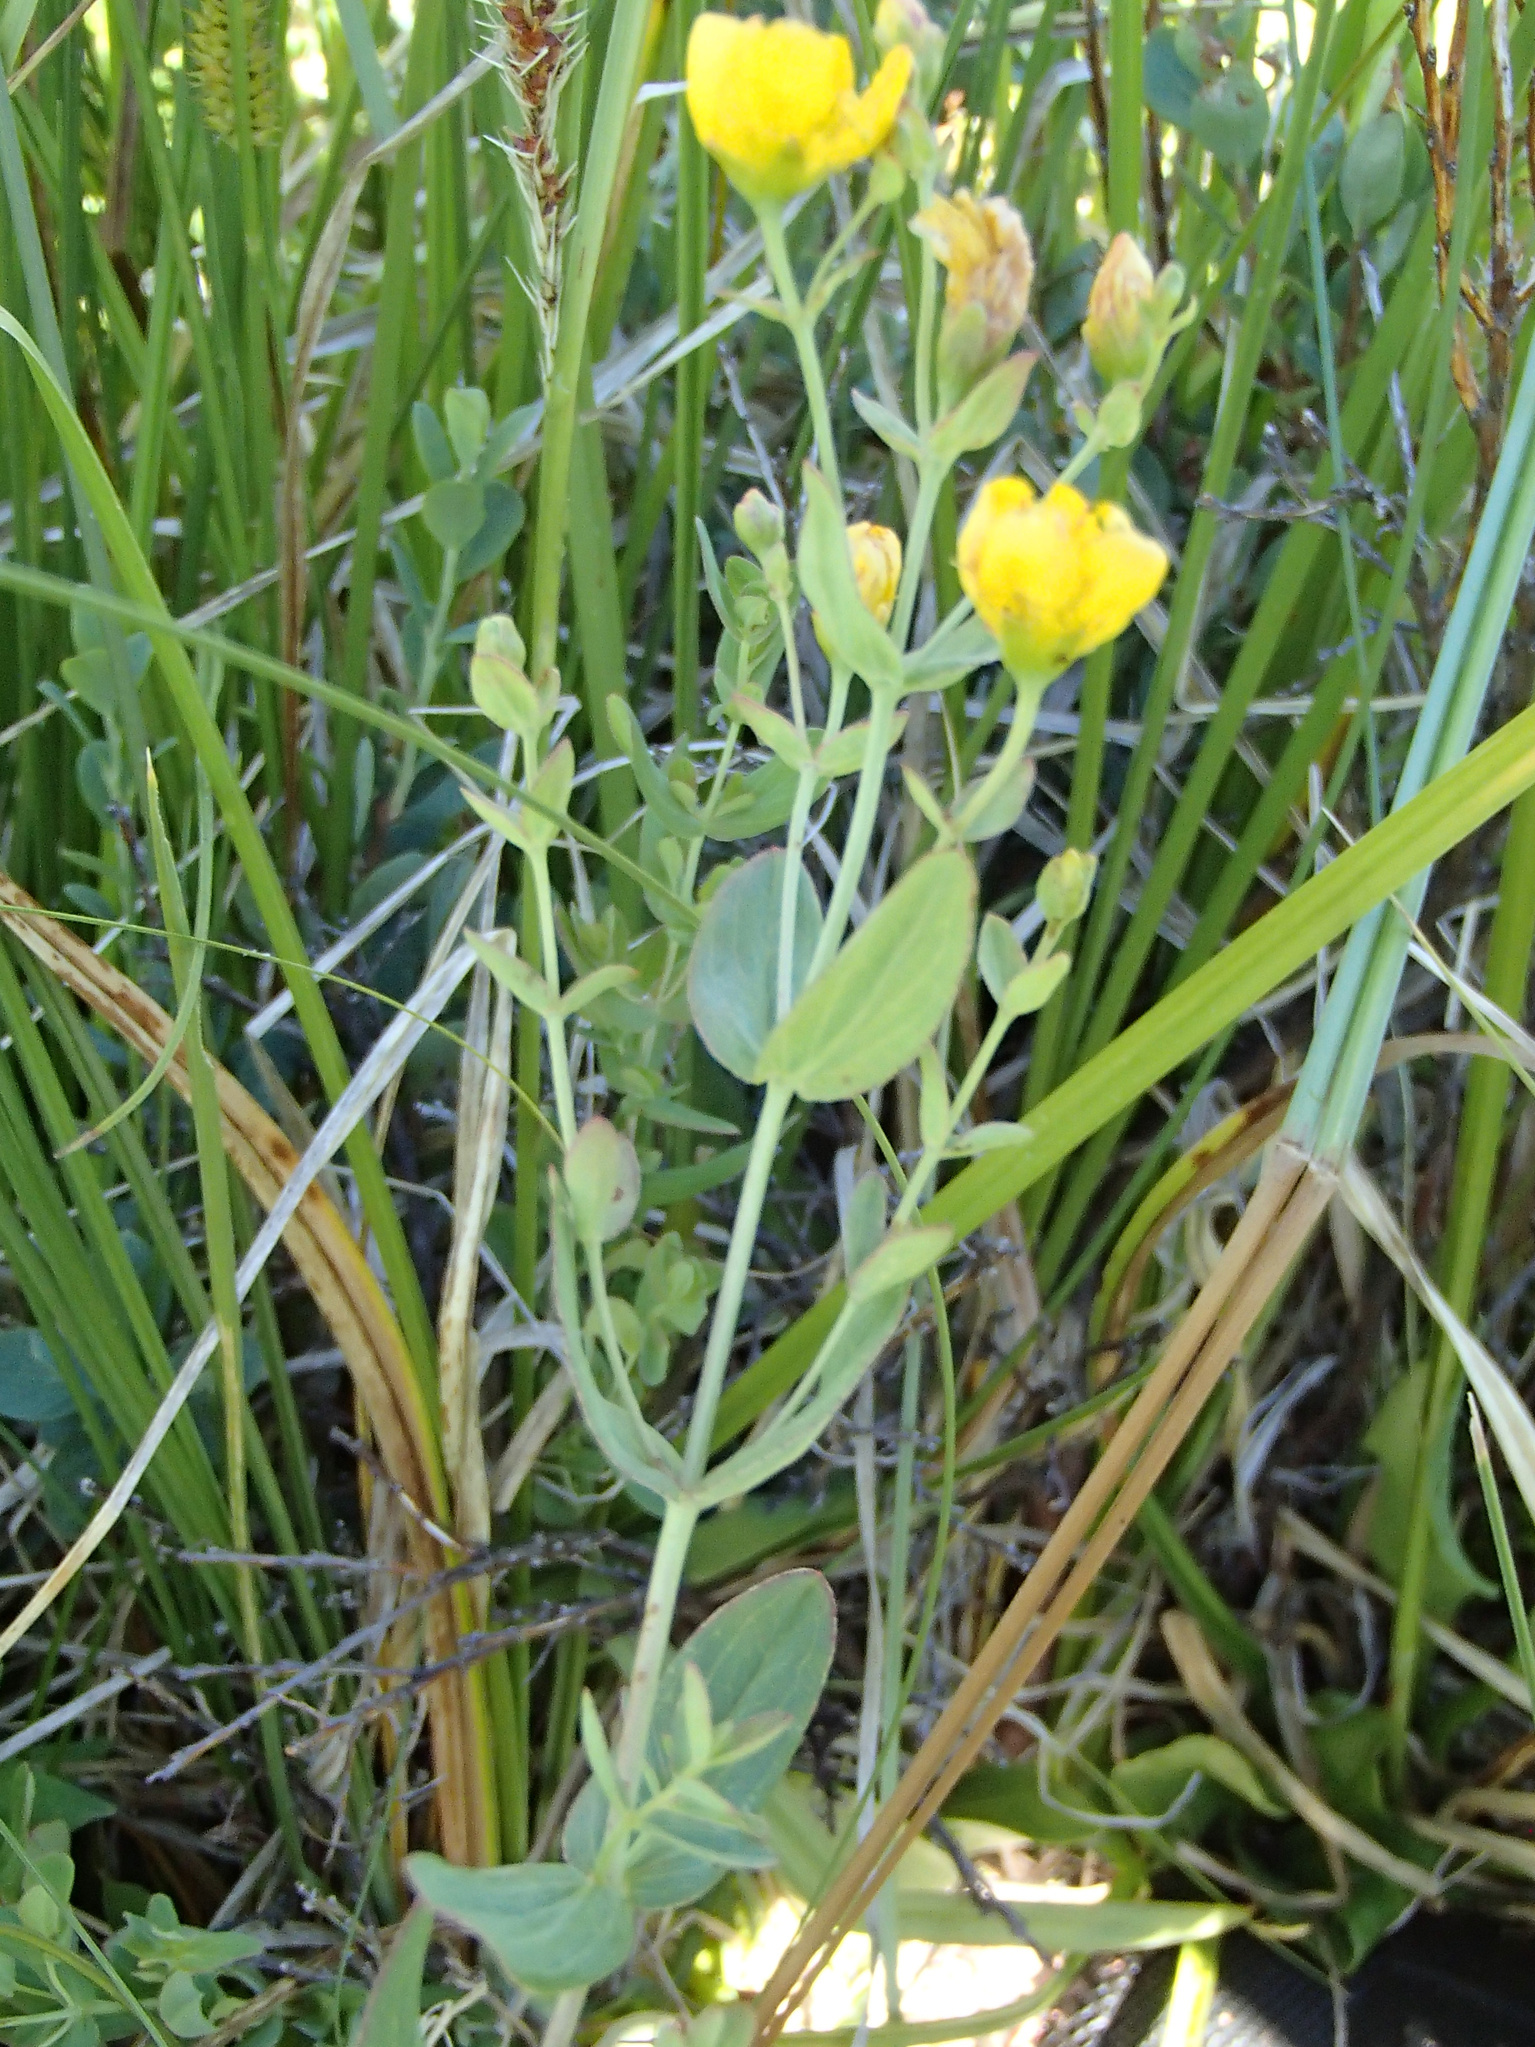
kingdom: Plantae
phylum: Tracheophyta
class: Magnoliopsida
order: Malpighiales
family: Hypericaceae
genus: Hypericum
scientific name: Hypericum scouleri
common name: Scouler's st. john's-wort
